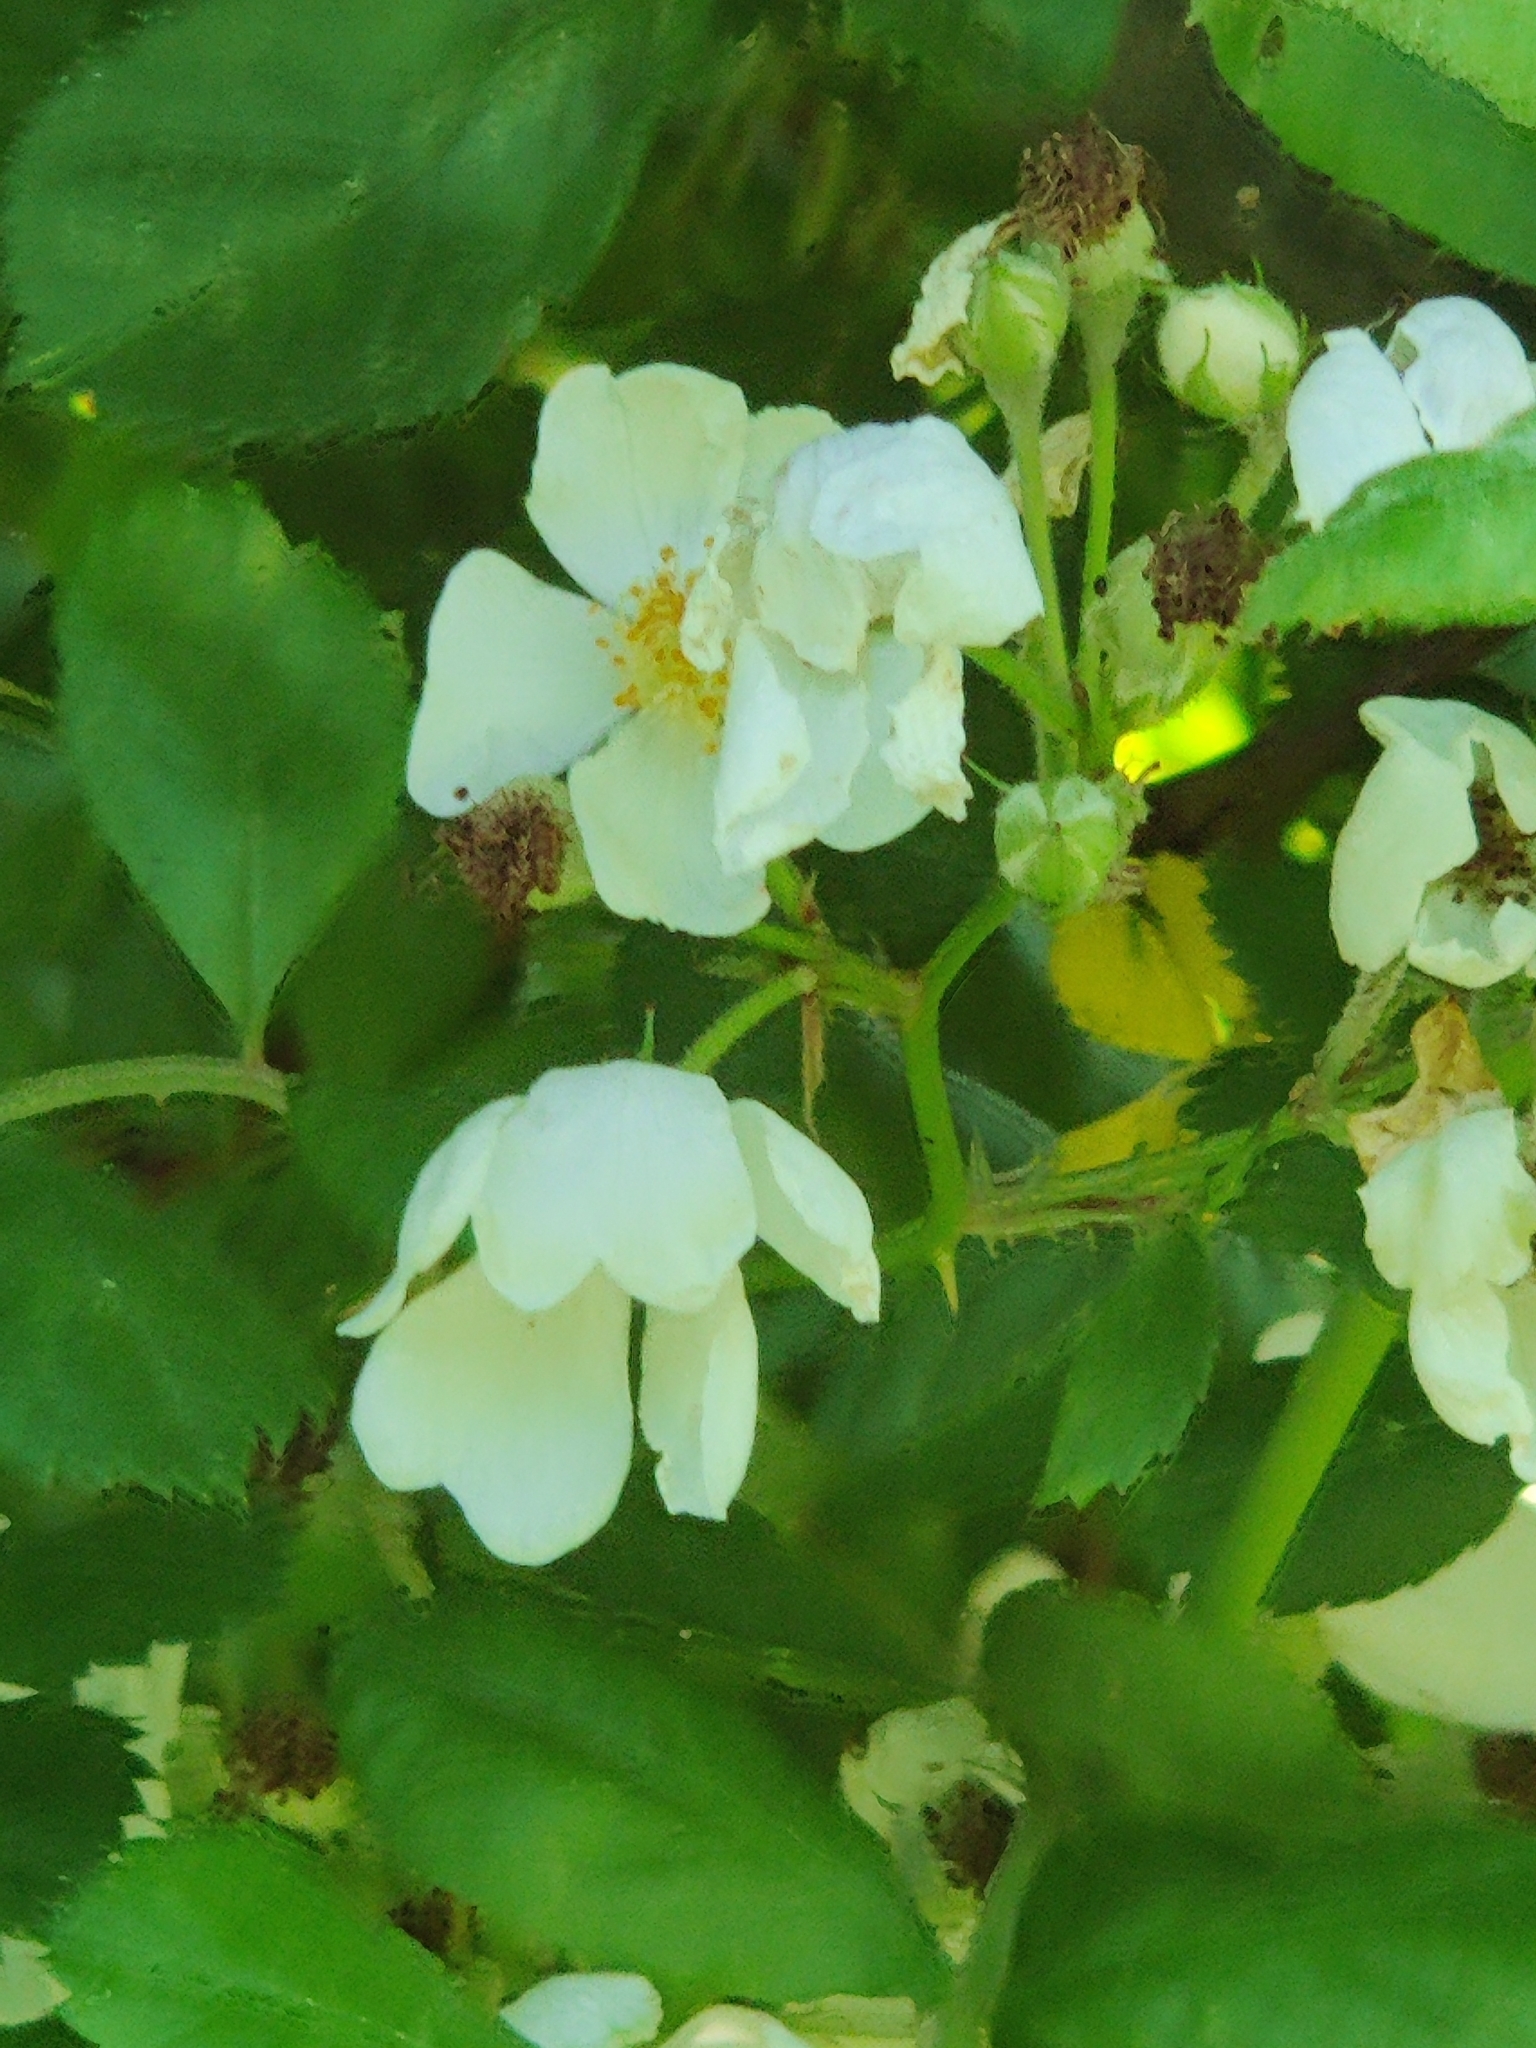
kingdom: Plantae
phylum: Tracheophyta
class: Magnoliopsida
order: Rosales
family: Rosaceae
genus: Rosa
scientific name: Rosa multiflora
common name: Multiflora rose
